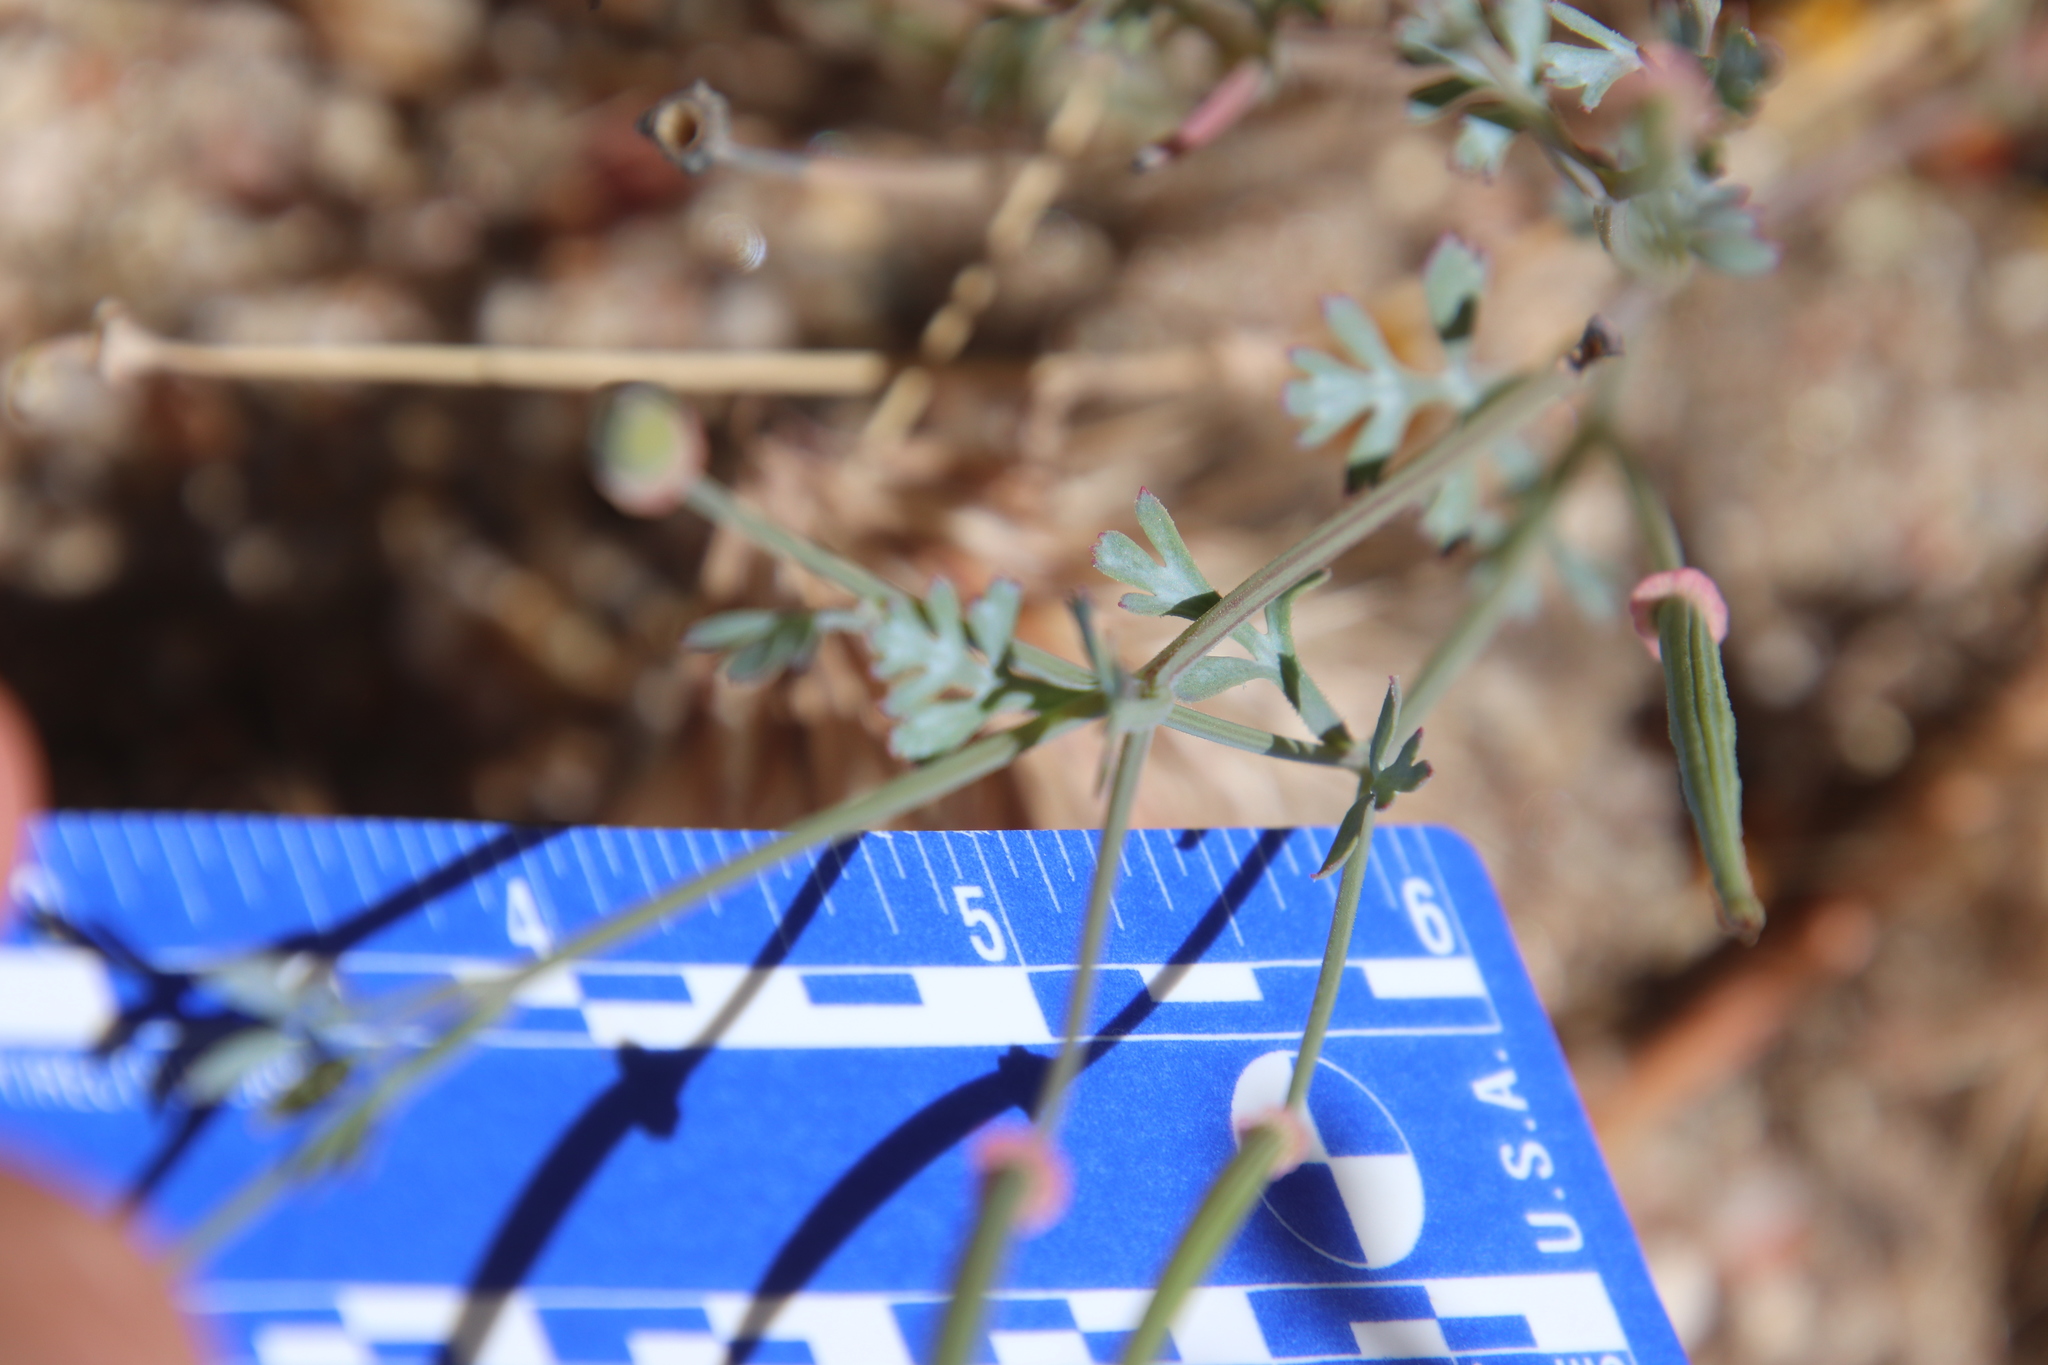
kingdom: Plantae
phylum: Tracheophyta
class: Magnoliopsida
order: Ranunculales
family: Papaveraceae
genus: Eschscholzia
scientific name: Eschscholzia californica
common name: California poppy
